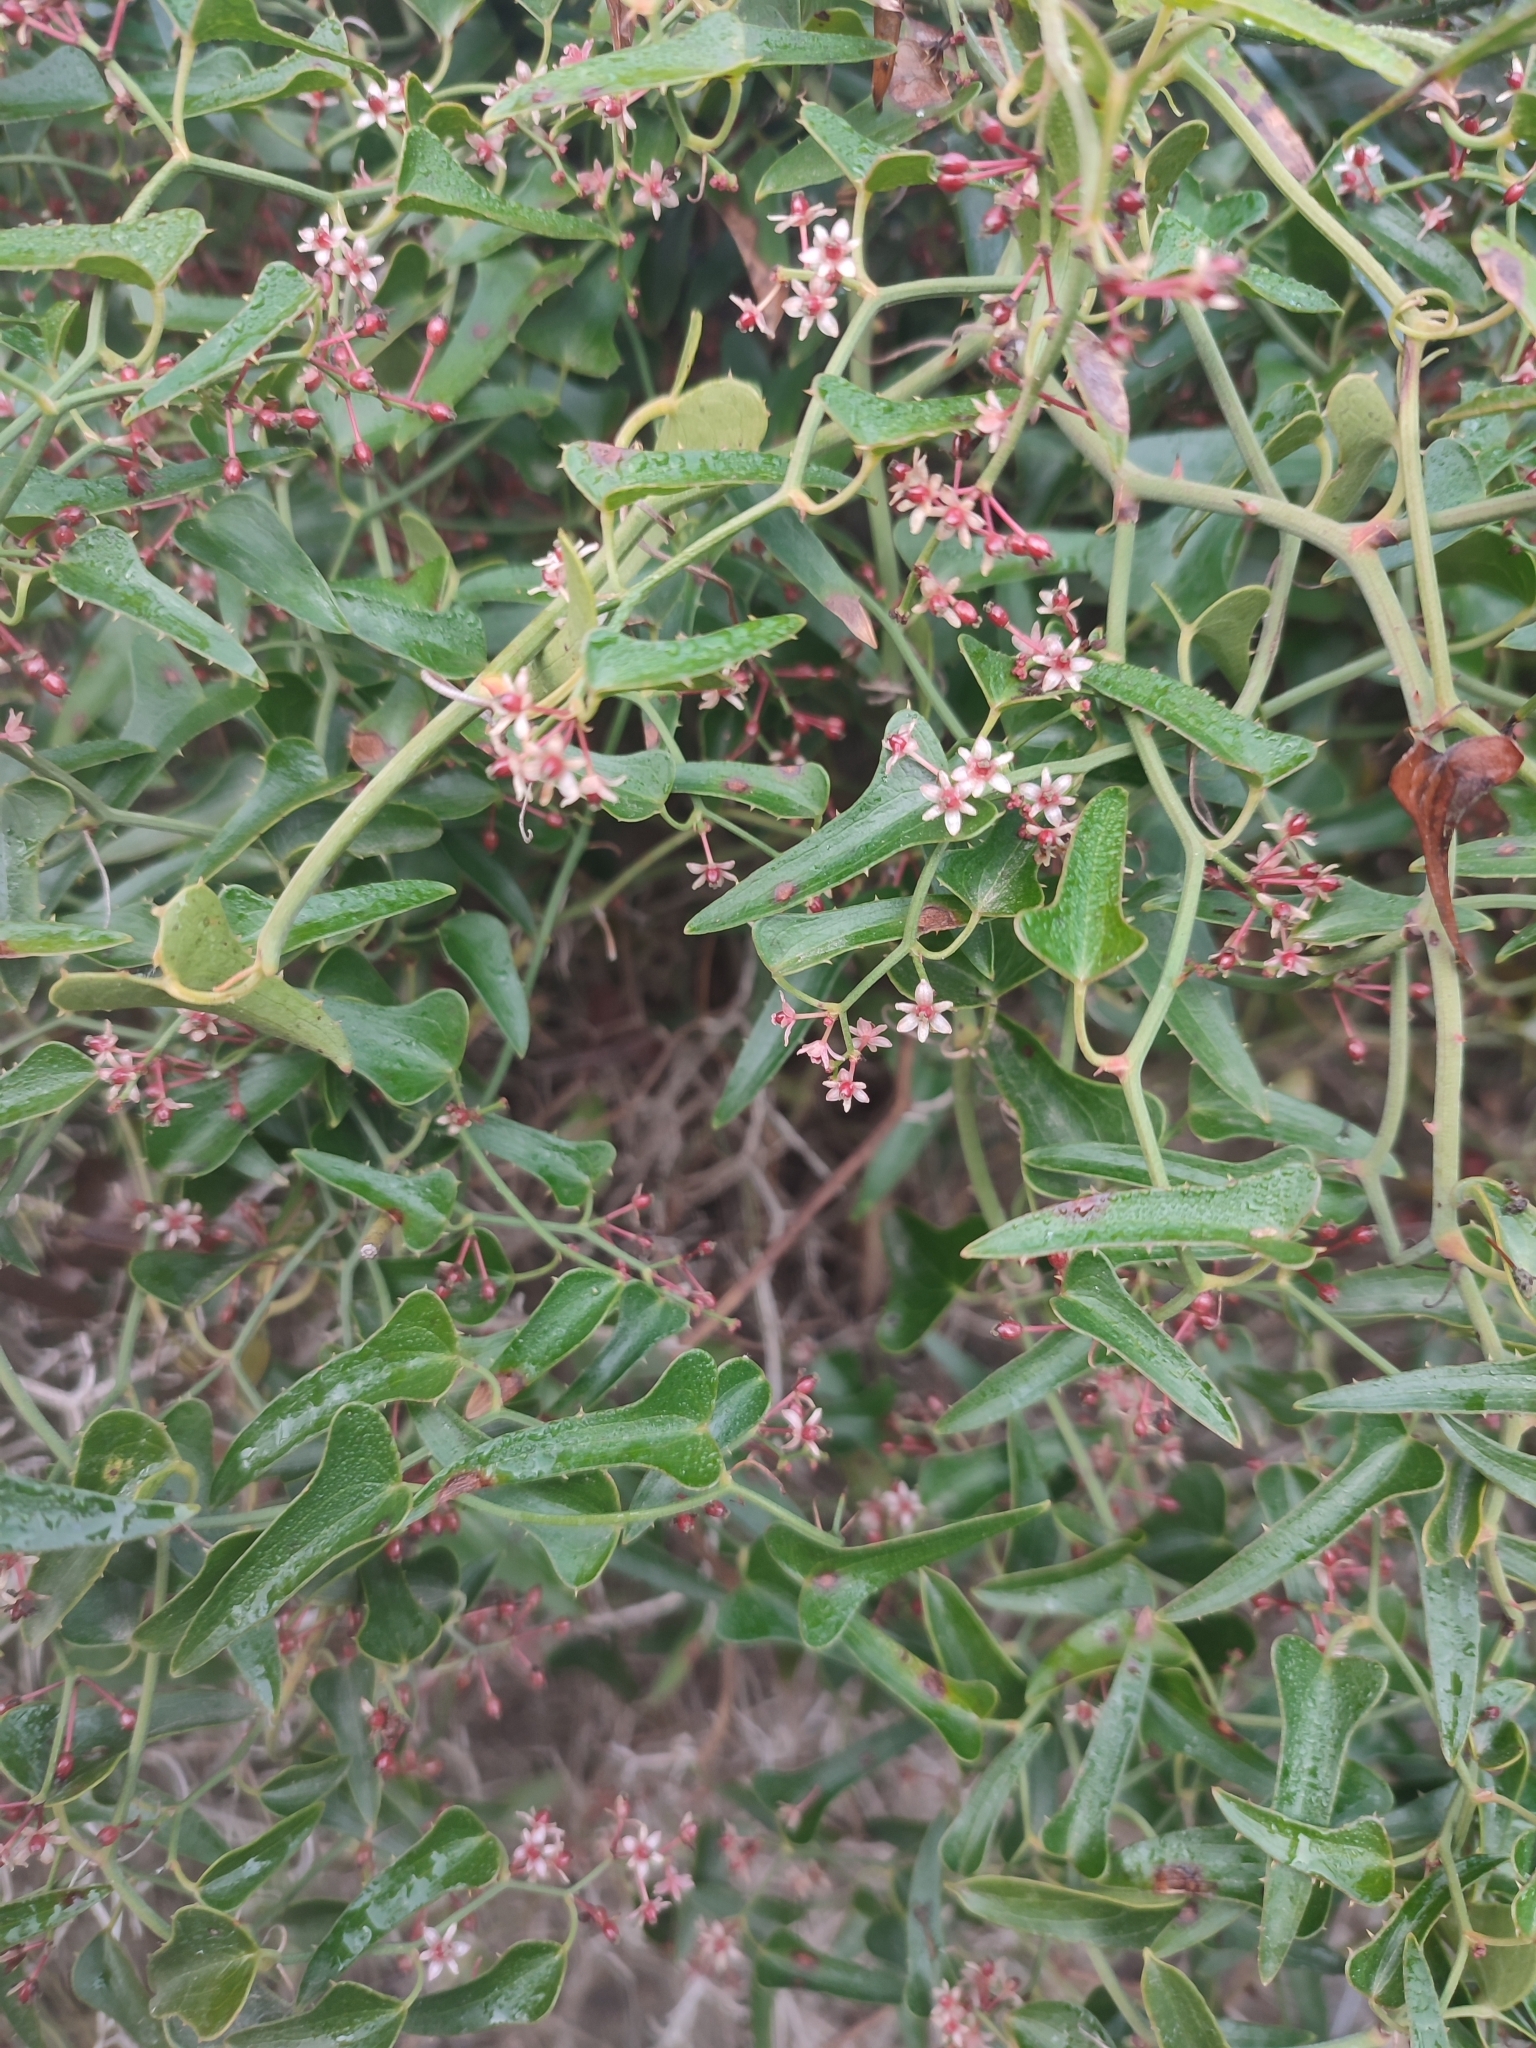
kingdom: Plantae
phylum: Tracheophyta
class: Liliopsida
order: Liliales
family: Smilacaceae
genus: Smilax
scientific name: Smilax aspera
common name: Common smilax
